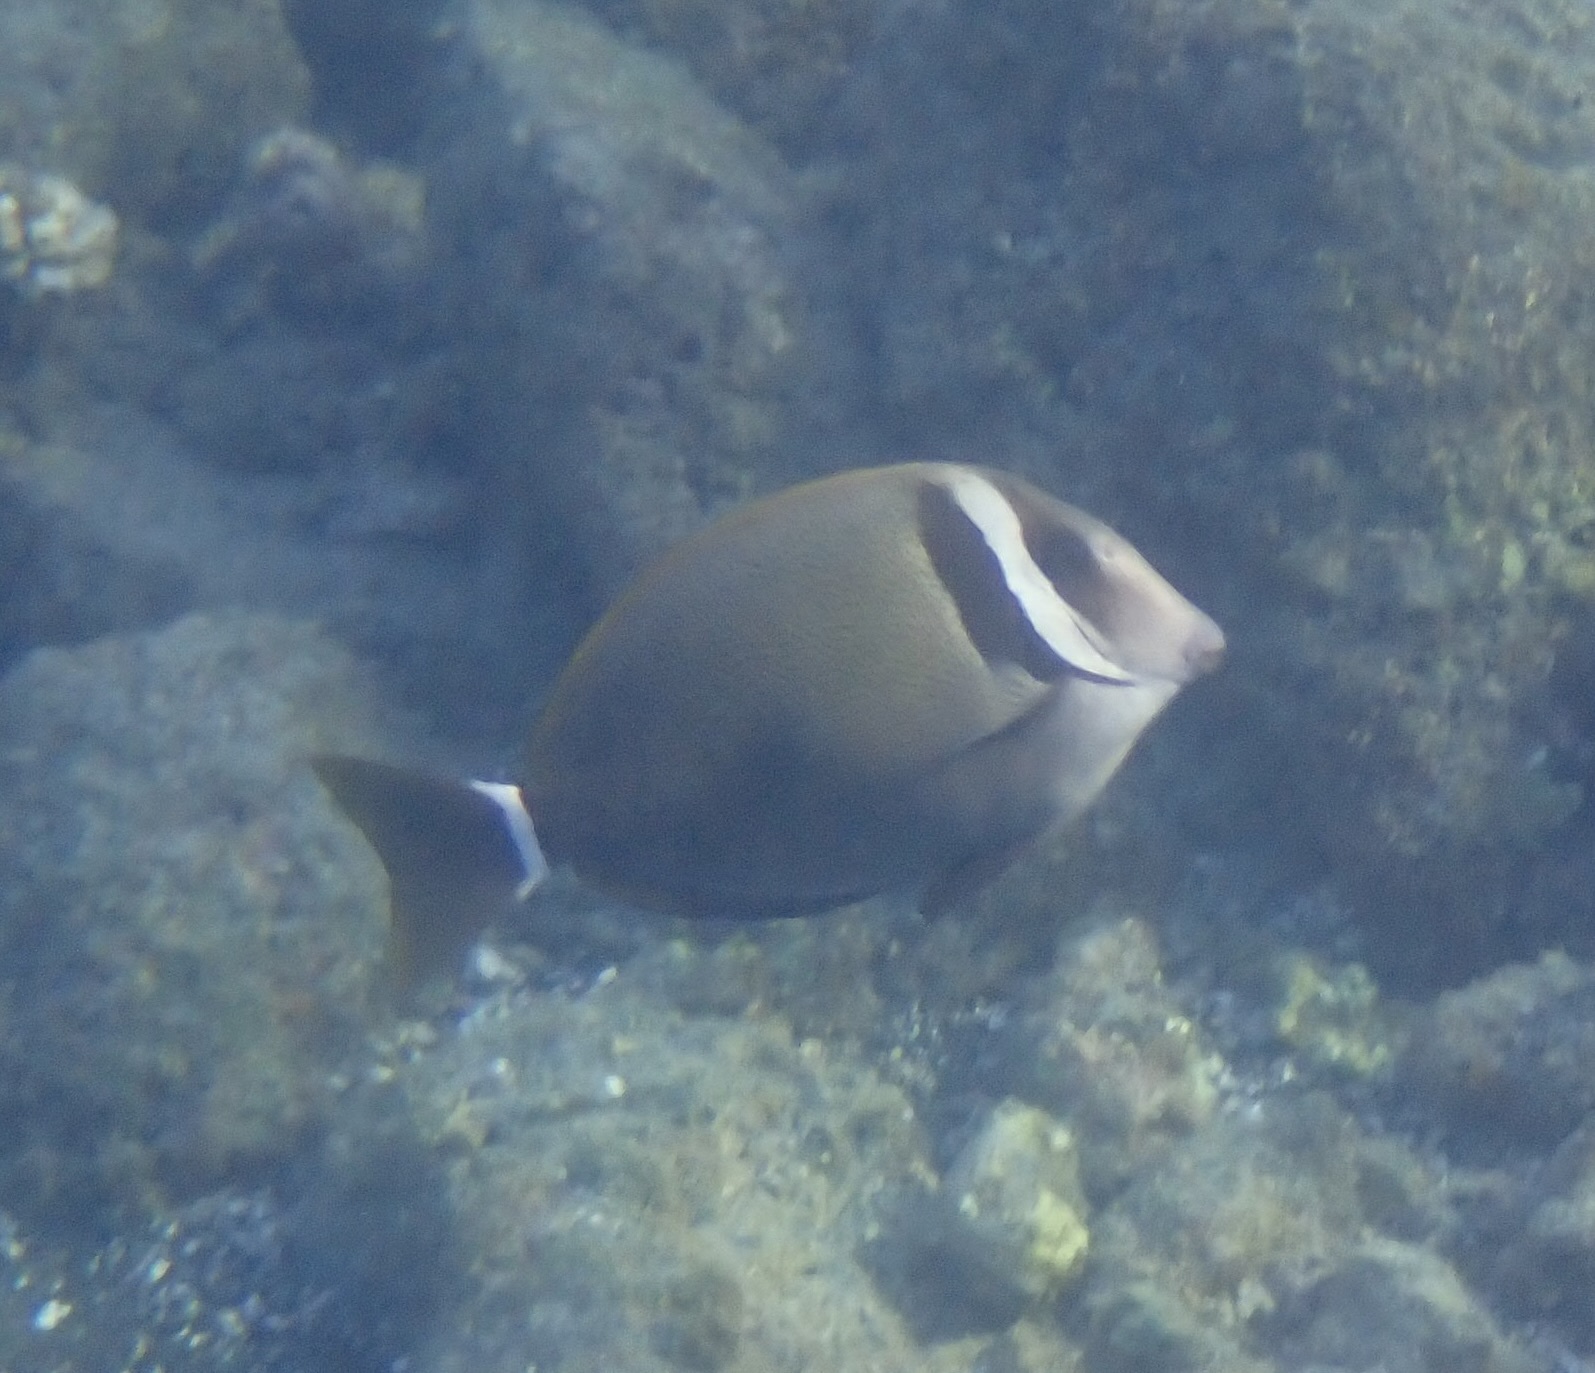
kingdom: Animalia
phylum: Chordata
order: Perciformes
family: Acanthuridae
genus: Acanthurus
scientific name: Acanthurus leucopareius
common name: Head-band surgeonfish
